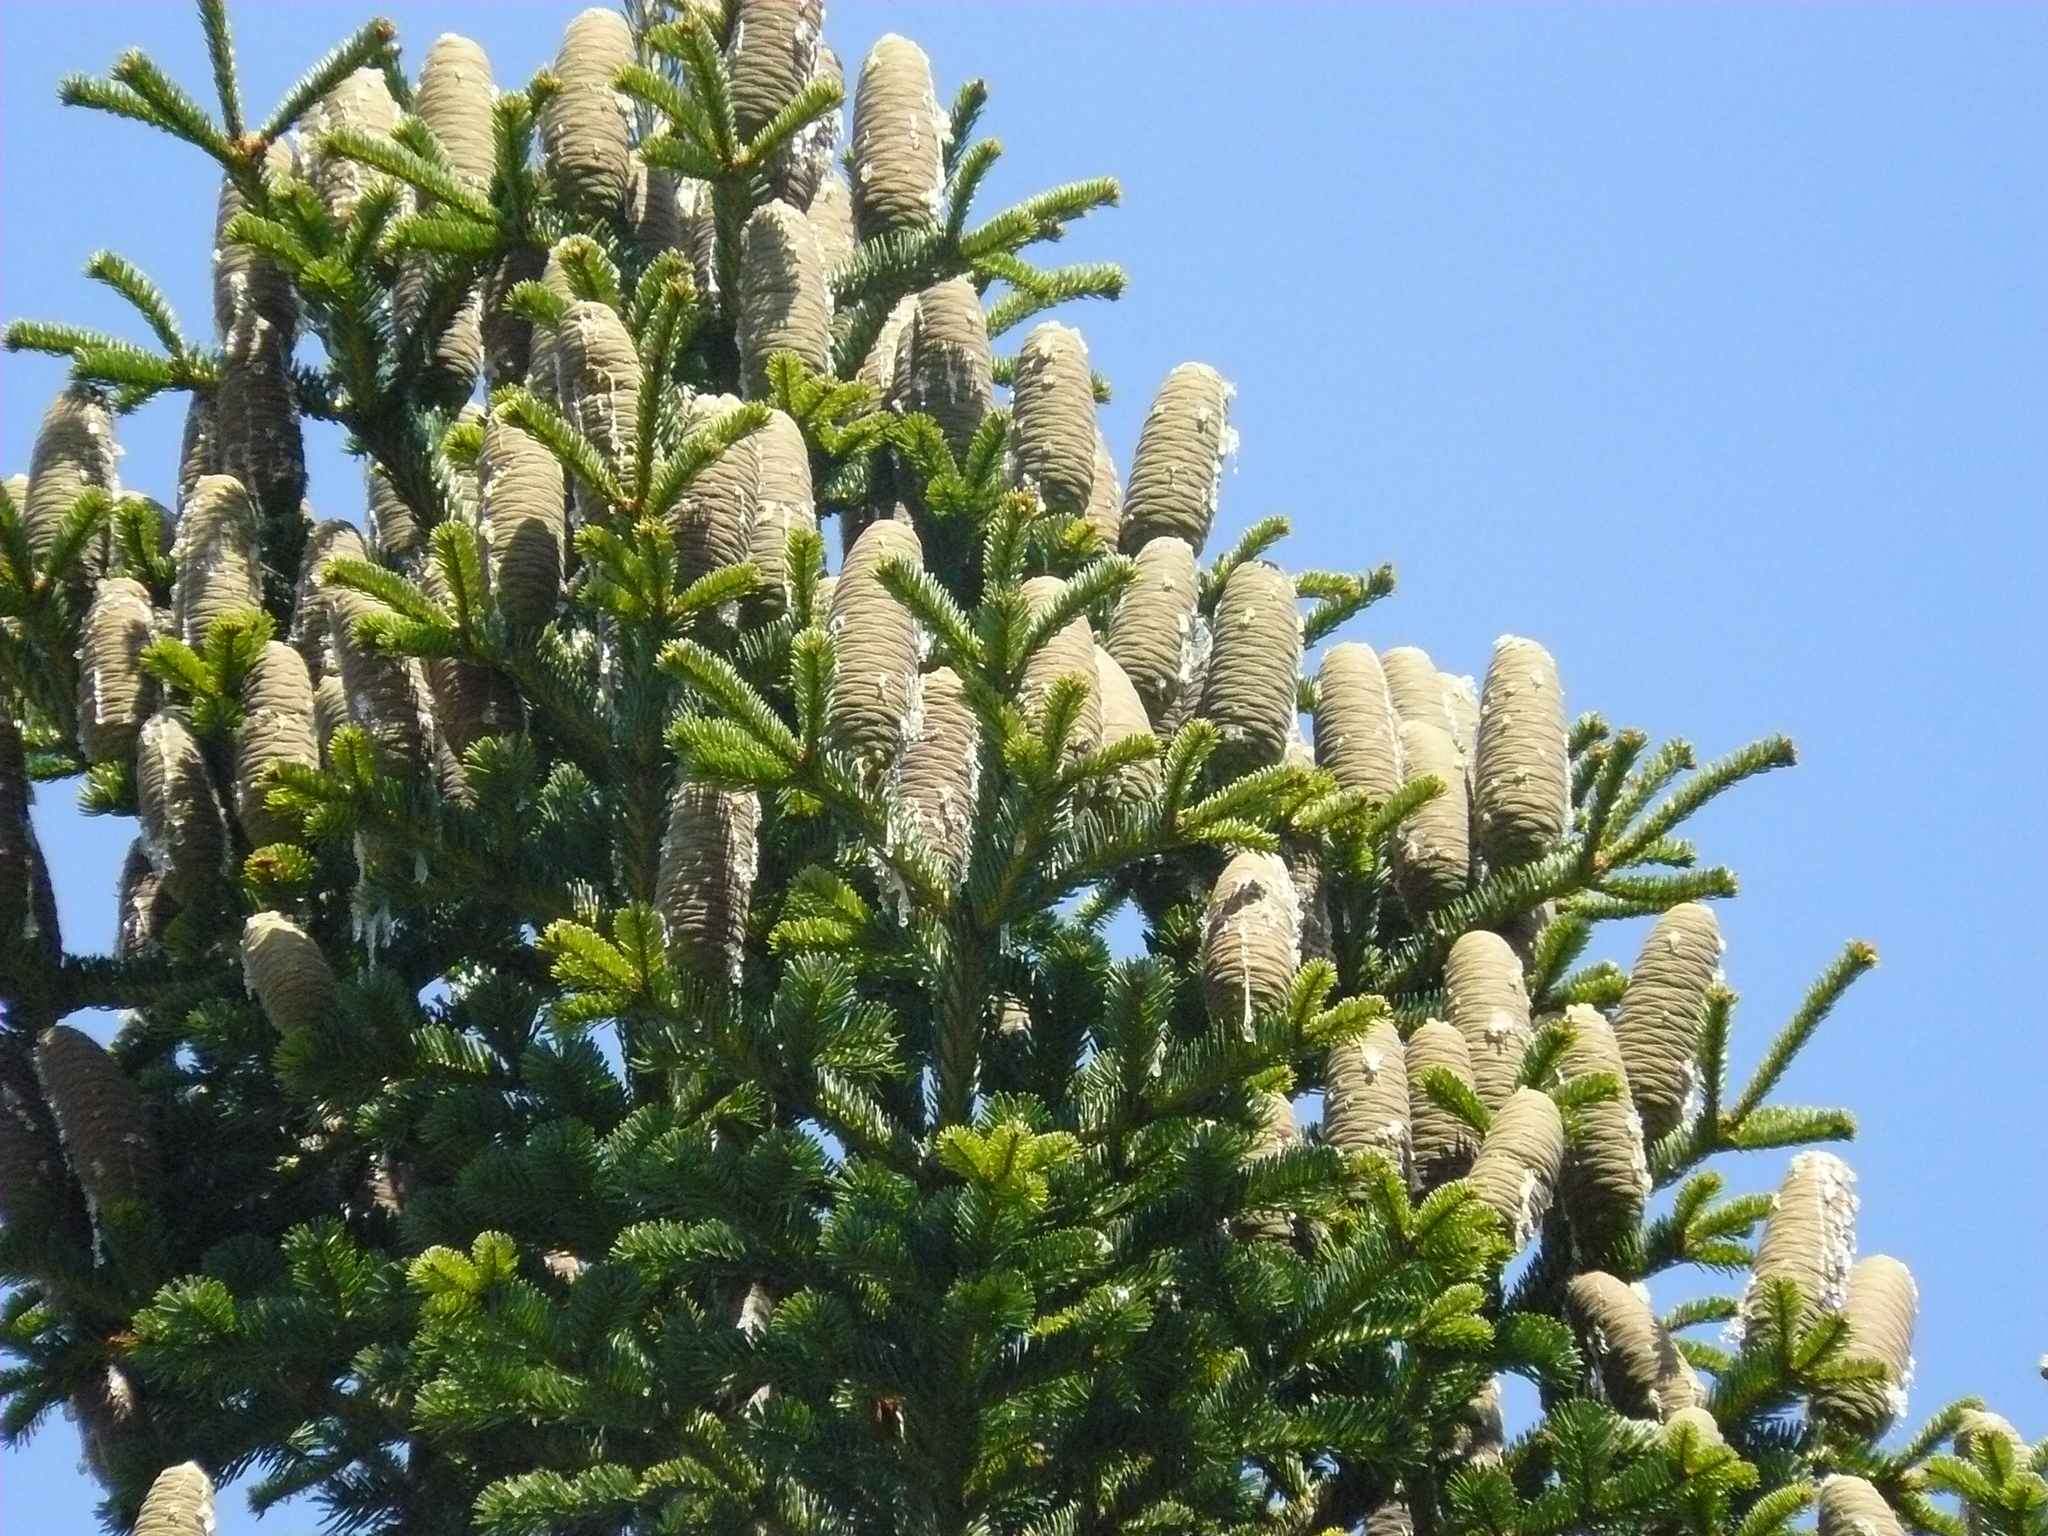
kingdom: Plantae
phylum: Tracheophyta
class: Pinopsida
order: Pinales
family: Pinaceae
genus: Abies
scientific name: Abies cilicica
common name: Cilician fir
